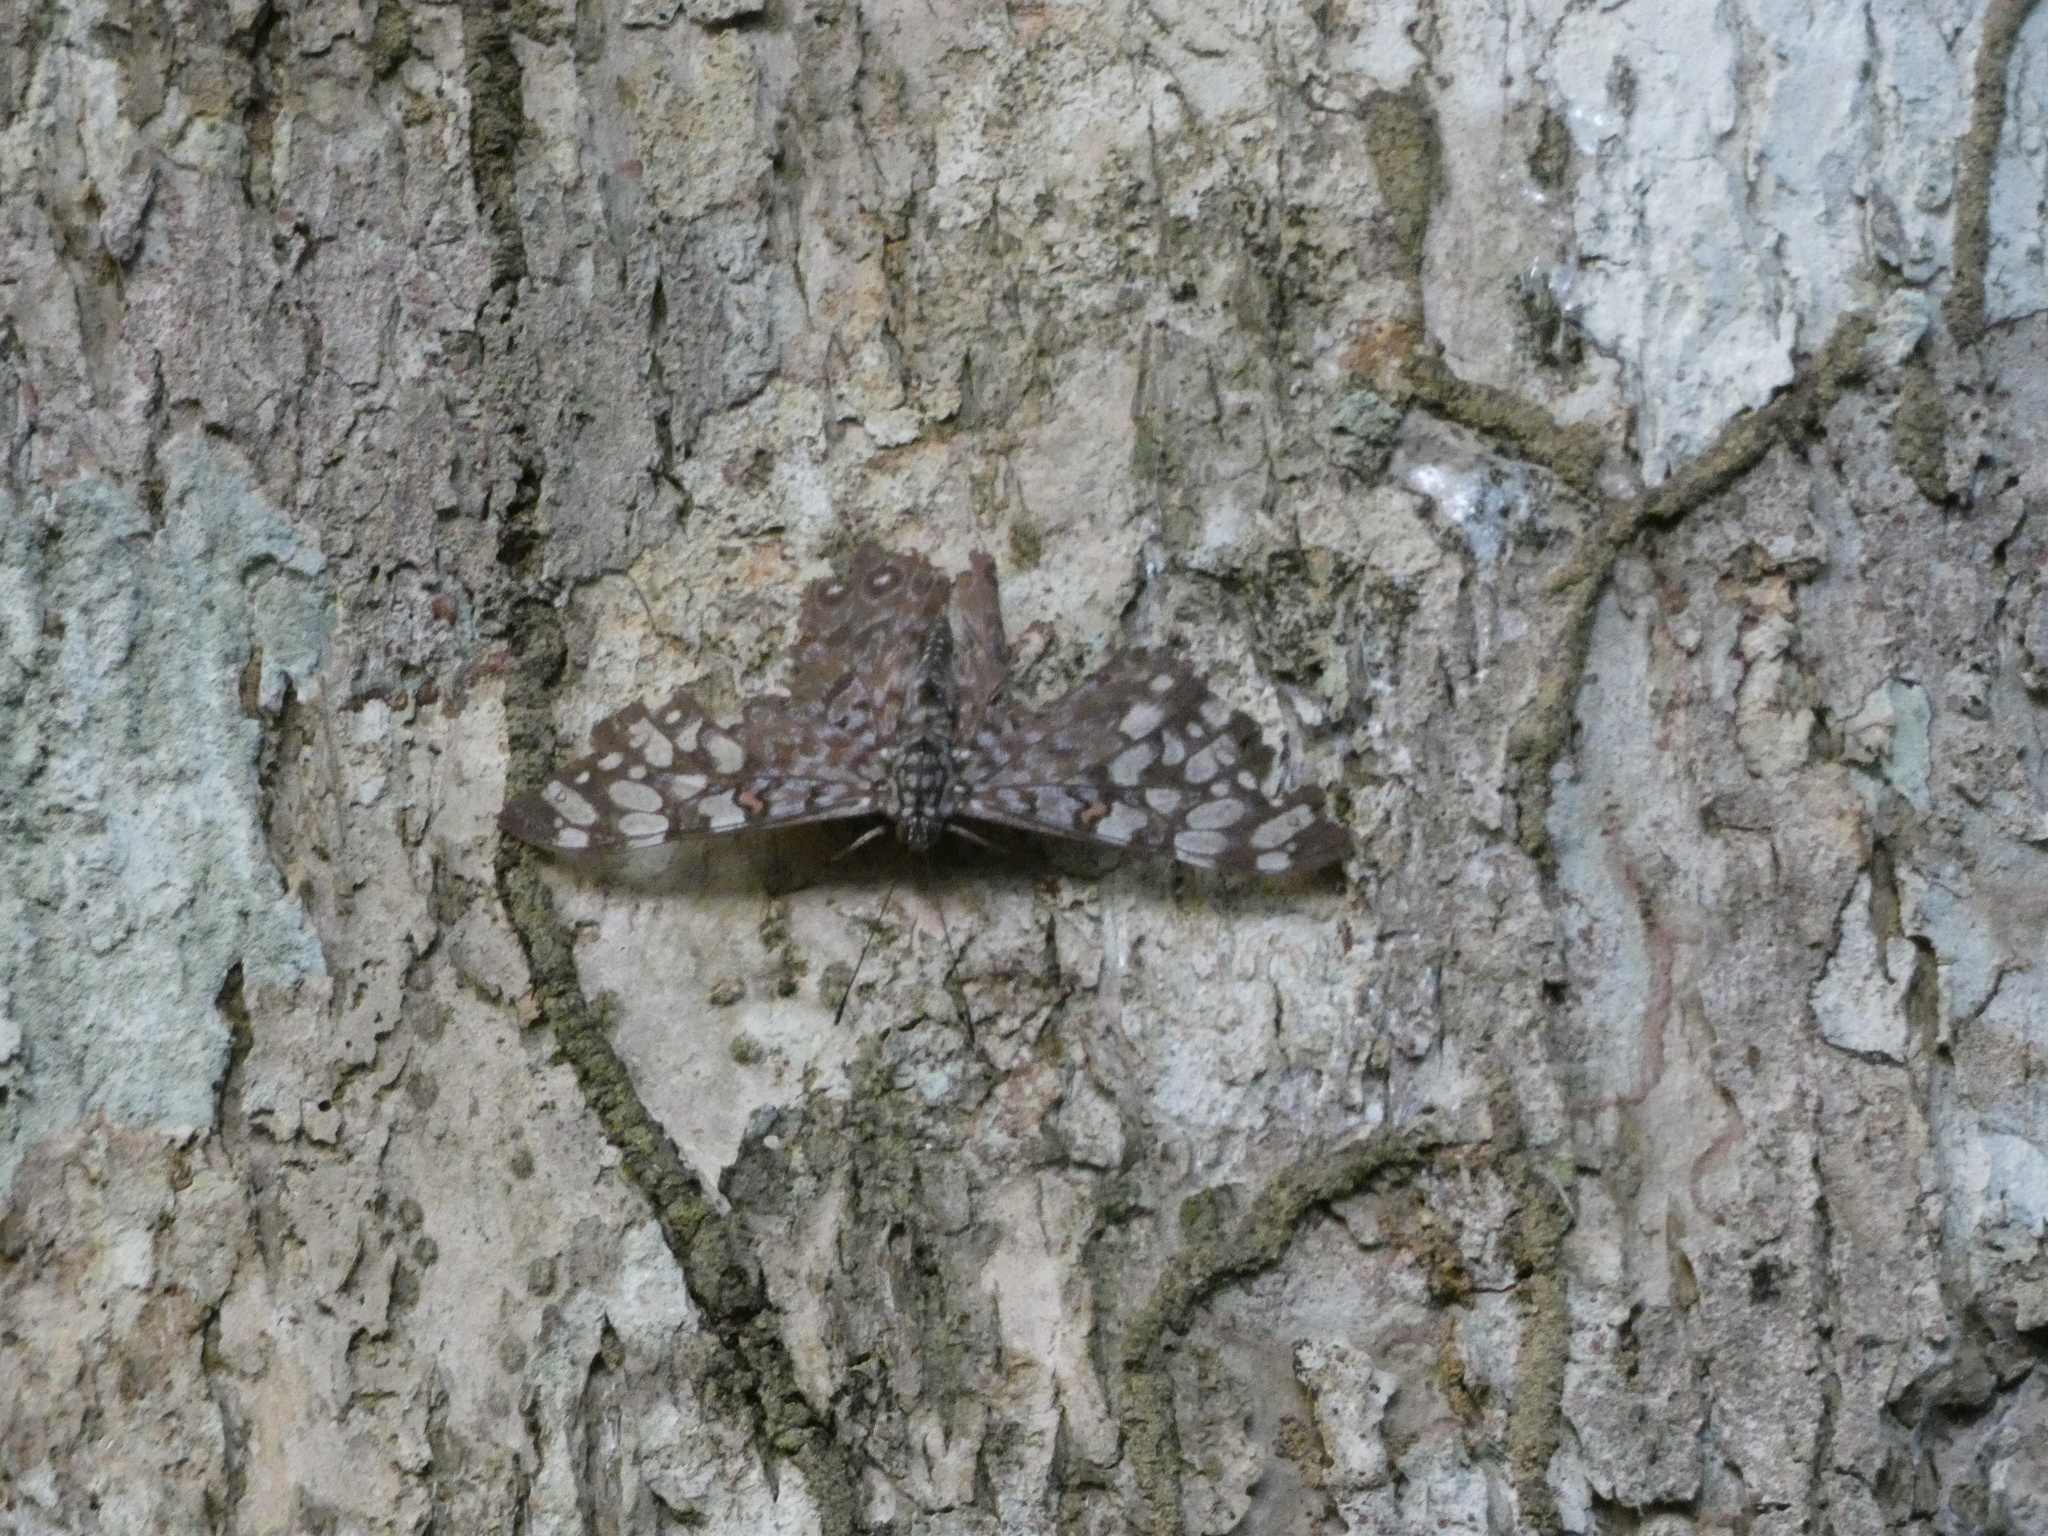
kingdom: Animalia
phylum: Arthropoda
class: Insecta
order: Lepidoptera
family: Nymphalidae
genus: Hamadryas
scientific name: Hamadryas feronia
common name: Variable cracker
